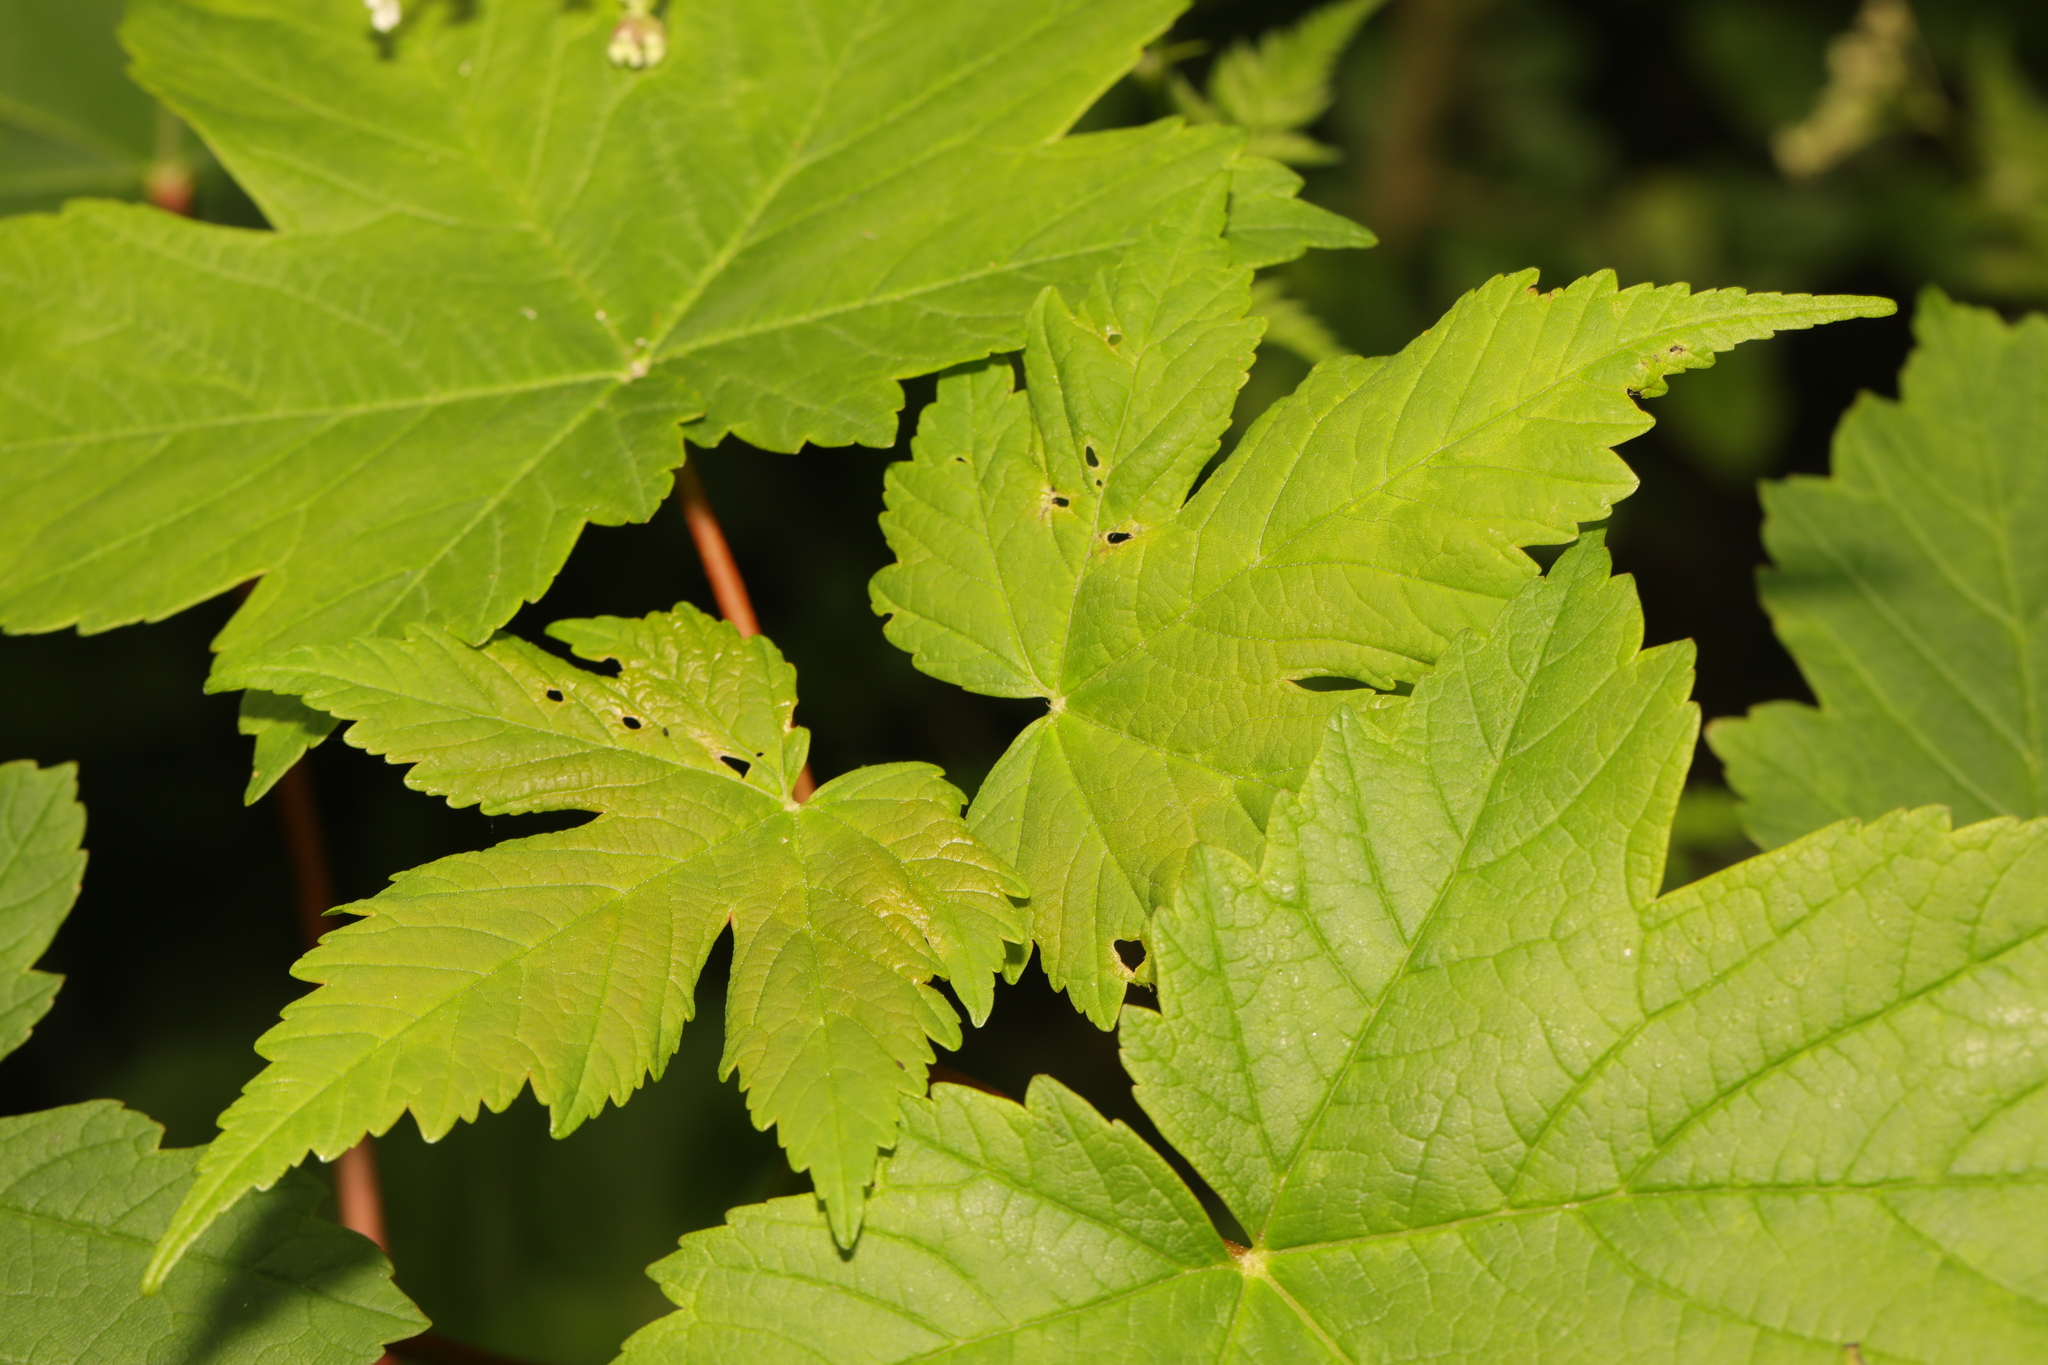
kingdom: Plantae
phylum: Tracheophyta
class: Magnoliopsida
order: Sapindales
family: Sapindaceae
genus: Acer
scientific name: Acer pseudoplatanus
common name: Sycamore
